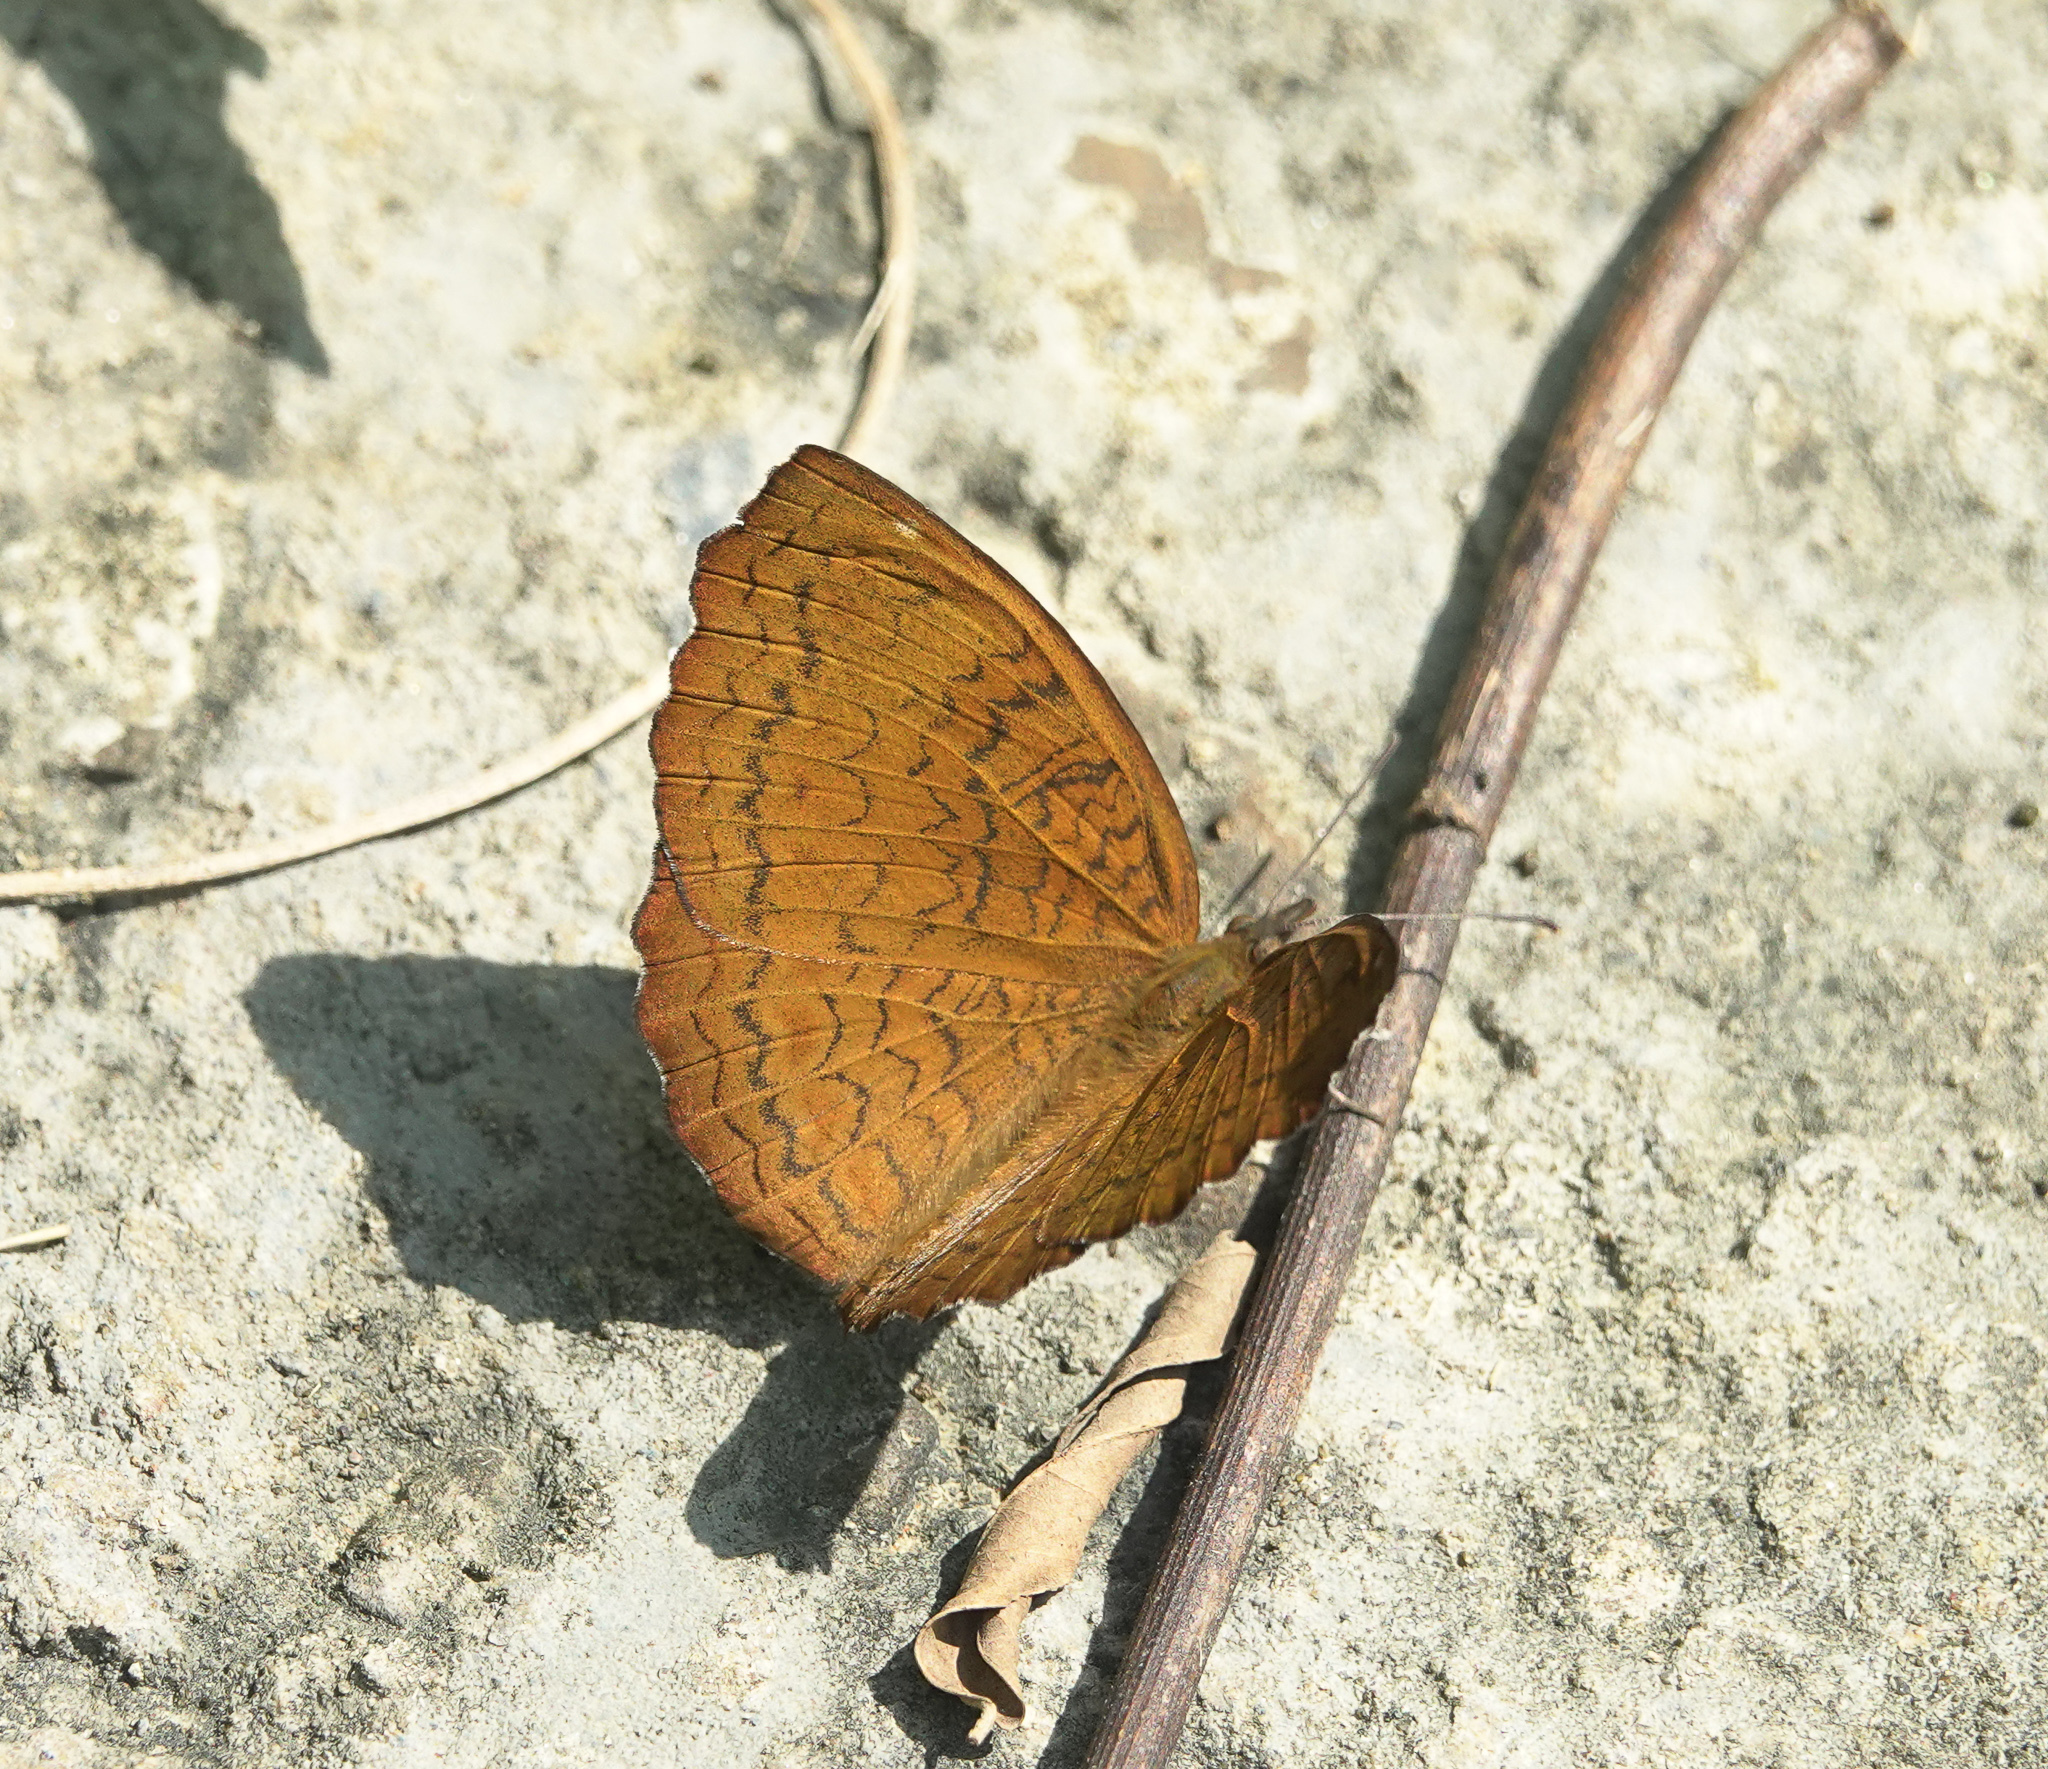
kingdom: Animalia
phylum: Arthropoda
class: Insecta
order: Lepidoptera
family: Nymphalidae
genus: Ariadne
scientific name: Ariadne merione
